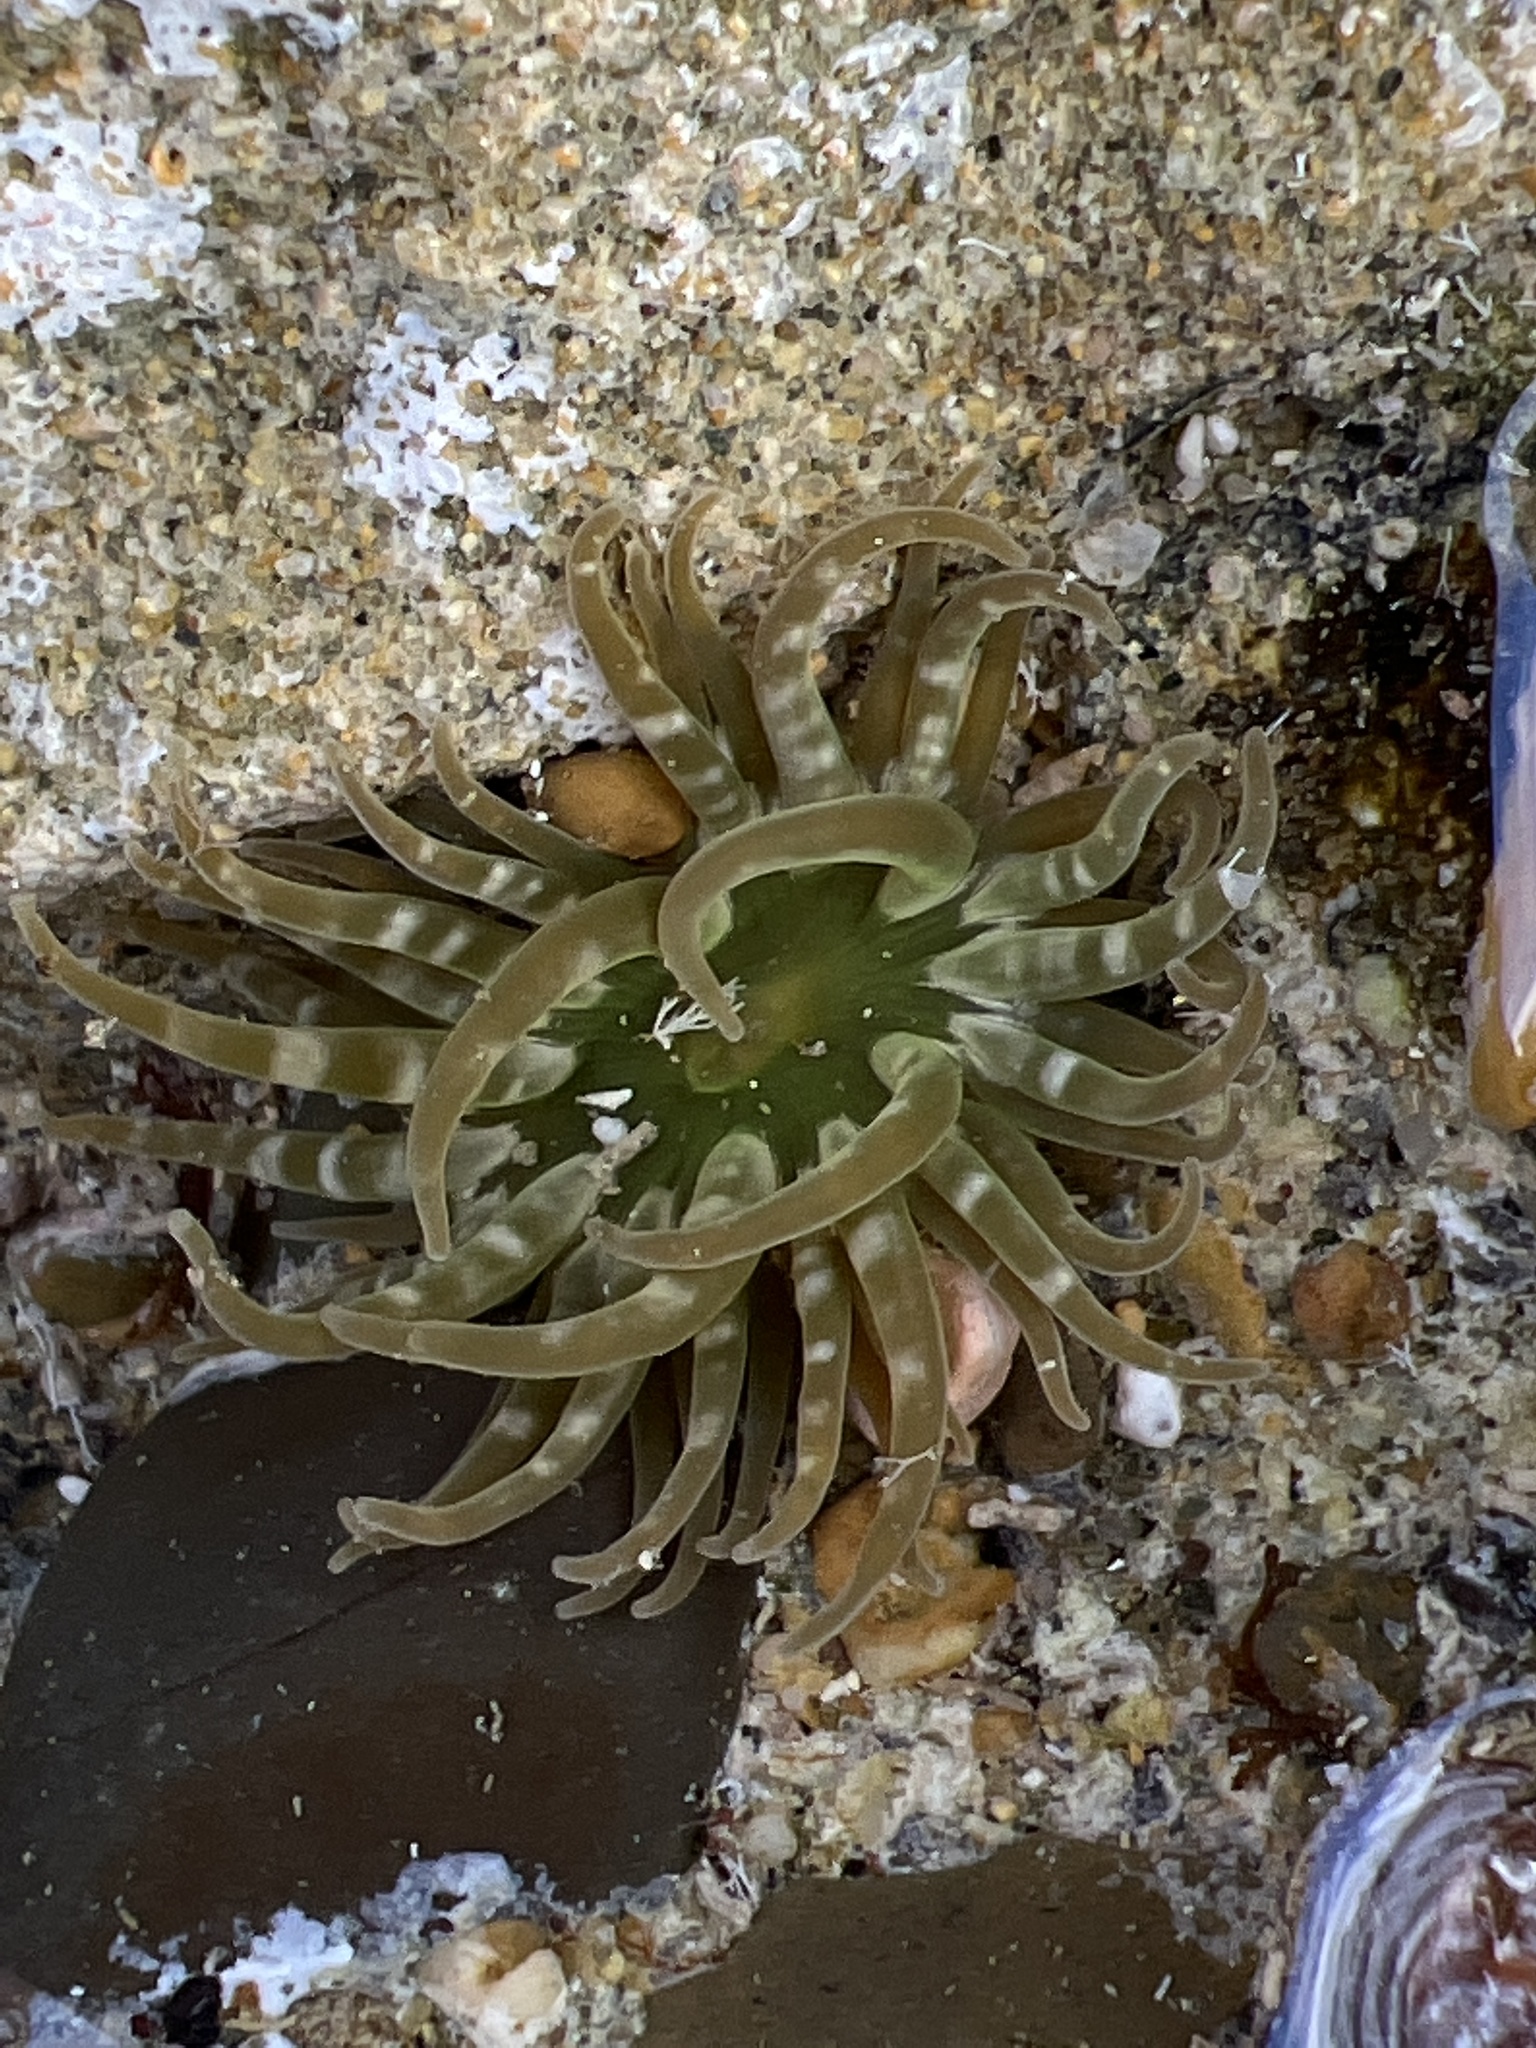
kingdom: Animalia
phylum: Cnidaria
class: Anthozoa
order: Actiniaria
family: Actiniidae
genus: Isoaulactinia
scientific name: Isoaulactinia stelloides
